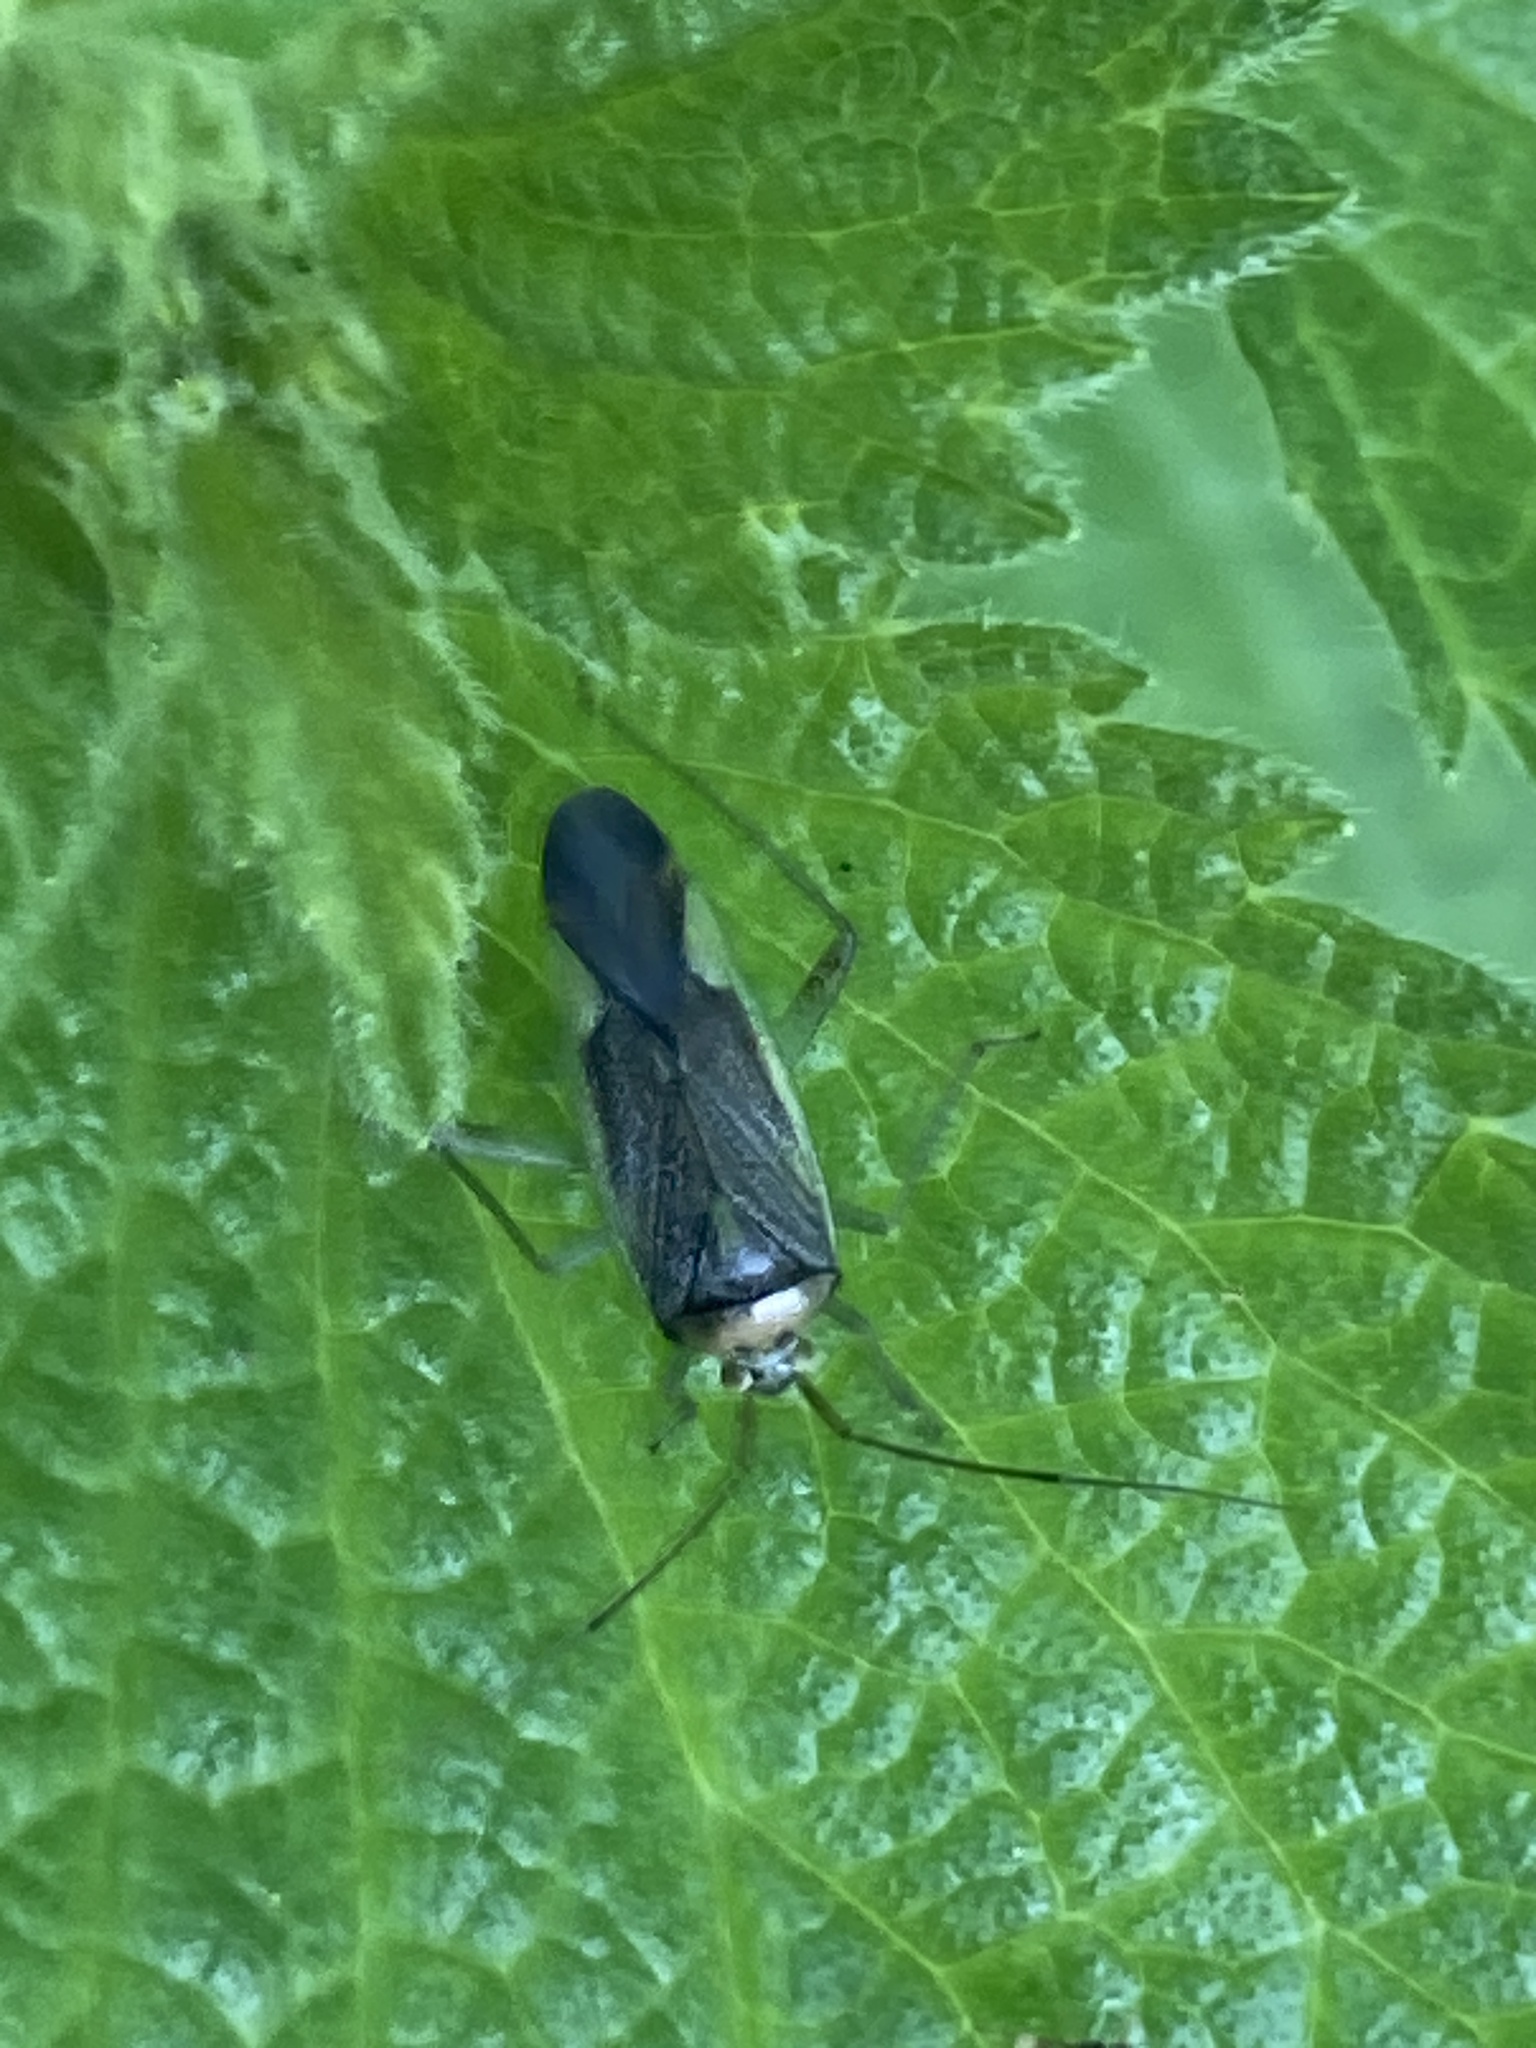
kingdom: Animalia
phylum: Arthropoda
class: Insecta
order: Hemiptera
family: Miridae
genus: Closterotomus
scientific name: Closterotomus trivialis
